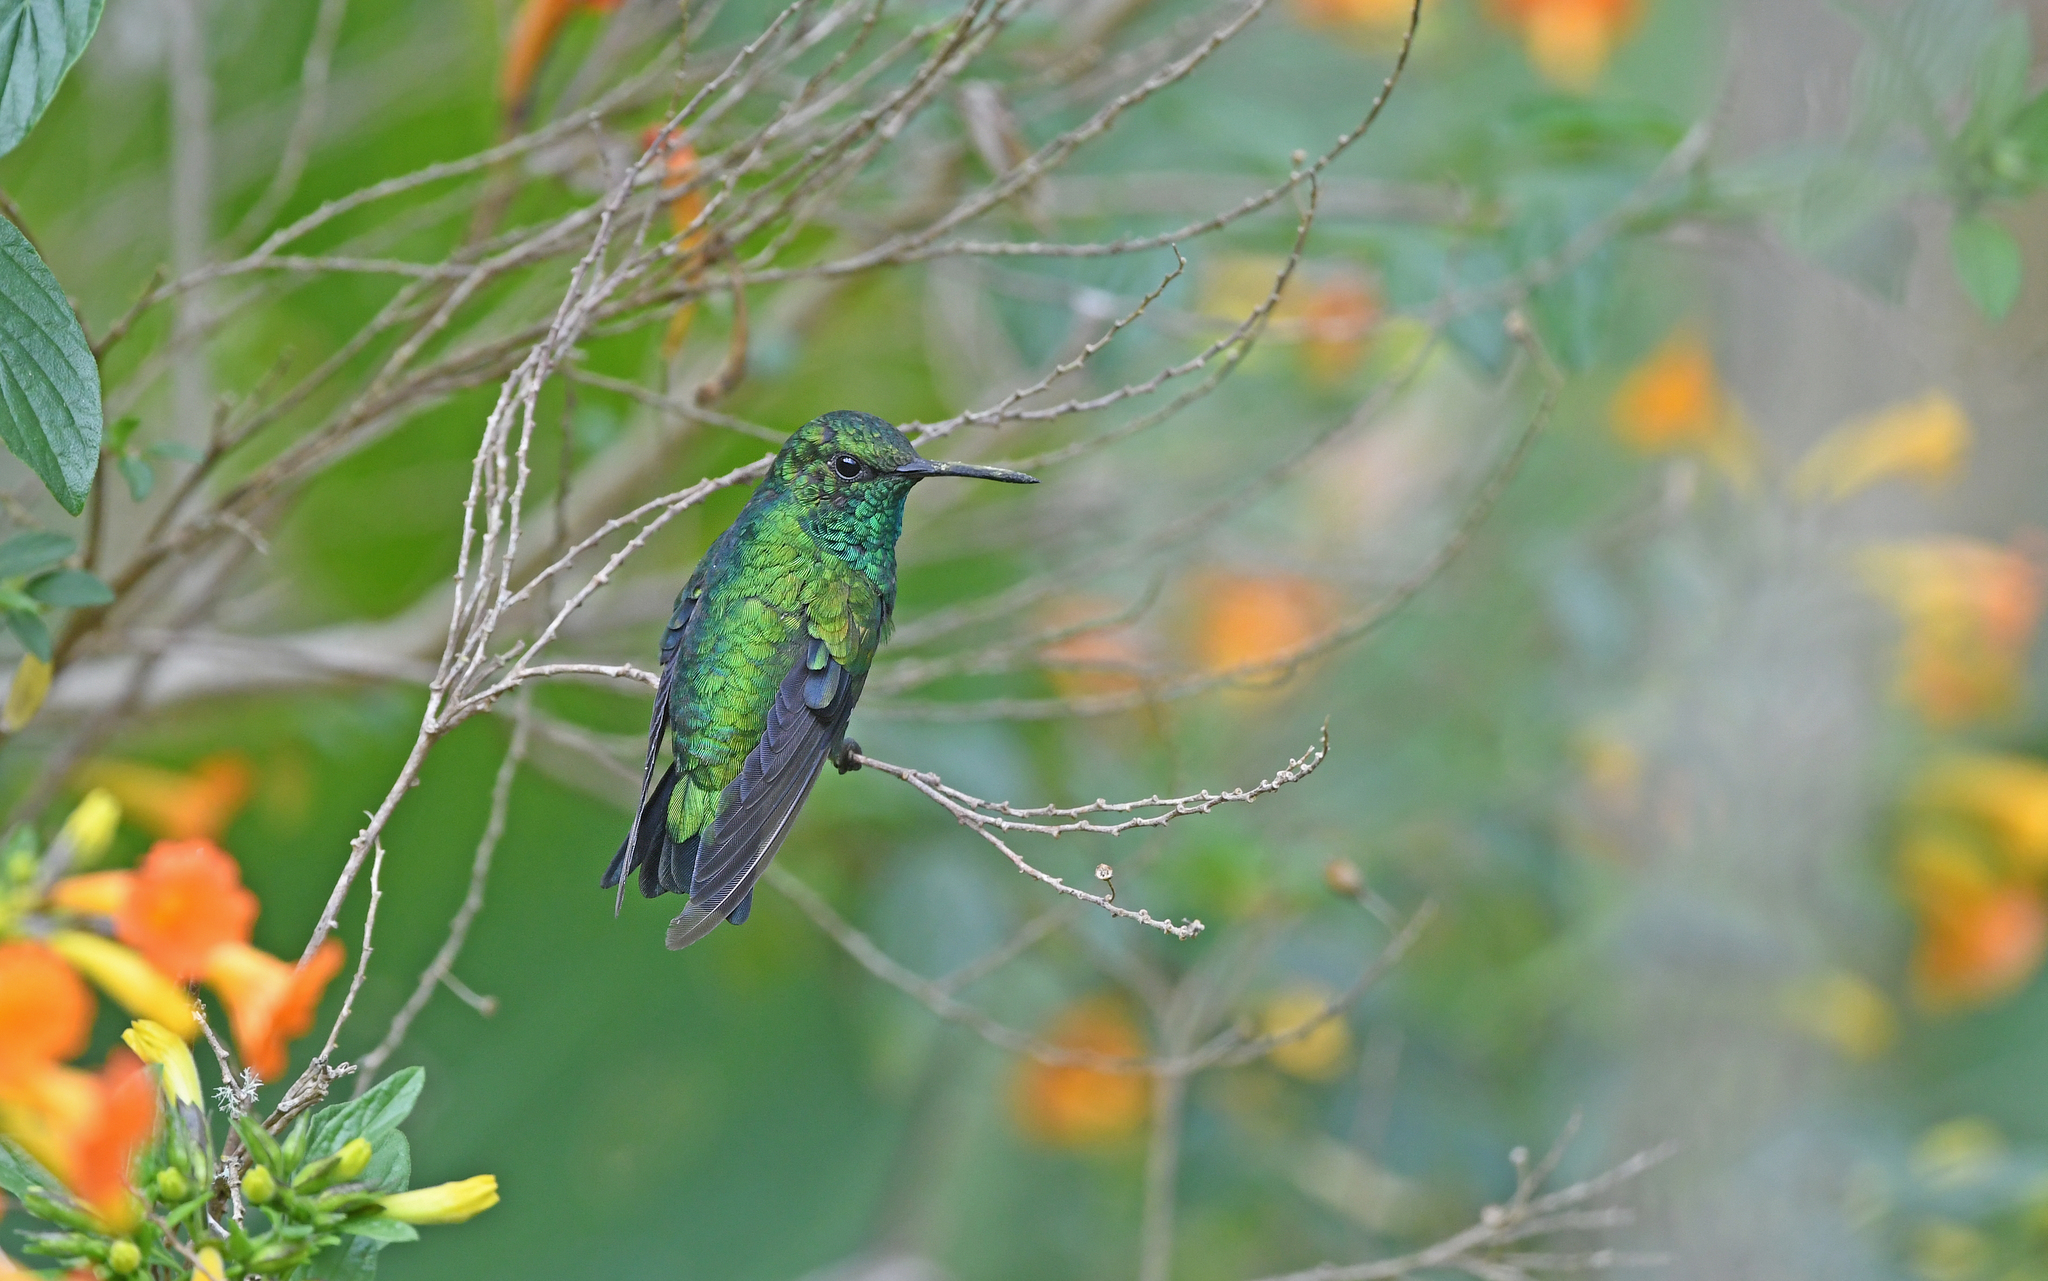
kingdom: Animalia
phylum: Chordata
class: Aves
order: Apodiformes
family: Trochilidae
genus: Chlorostilbon
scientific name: Chlorostilbon melanorhynchus
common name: Western emerald
